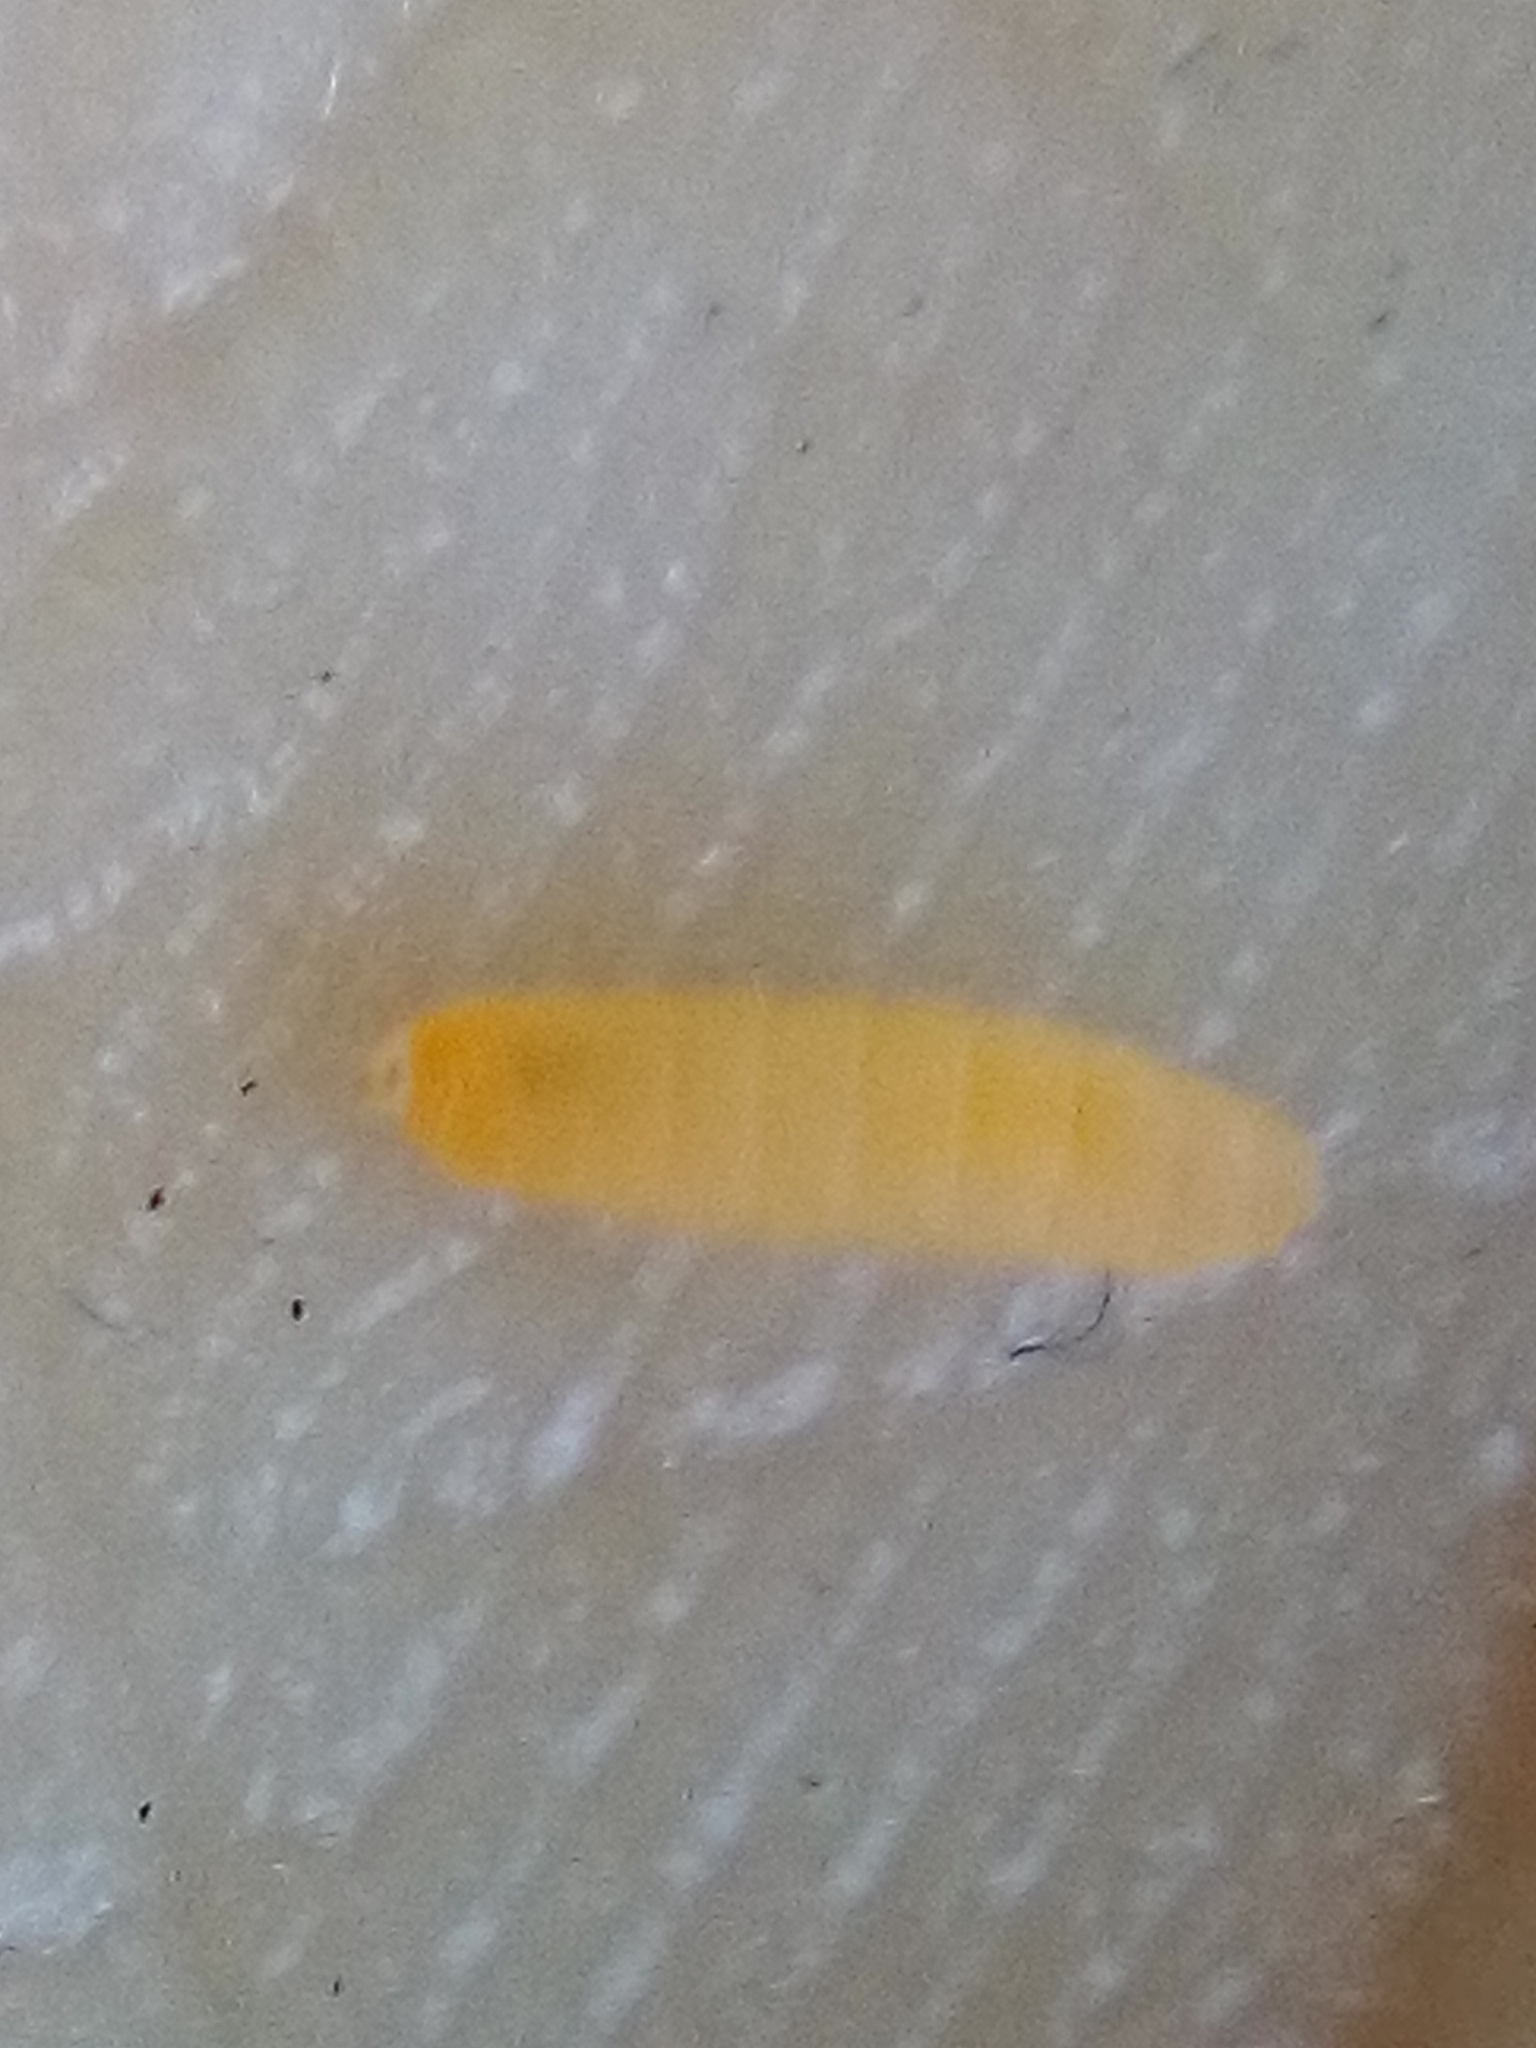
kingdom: Animalia
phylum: Arthropoda
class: Insecta
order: Diptera
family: Cecidomyiidae
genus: Obolodiplosis
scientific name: Obolodiplosis robiniae
